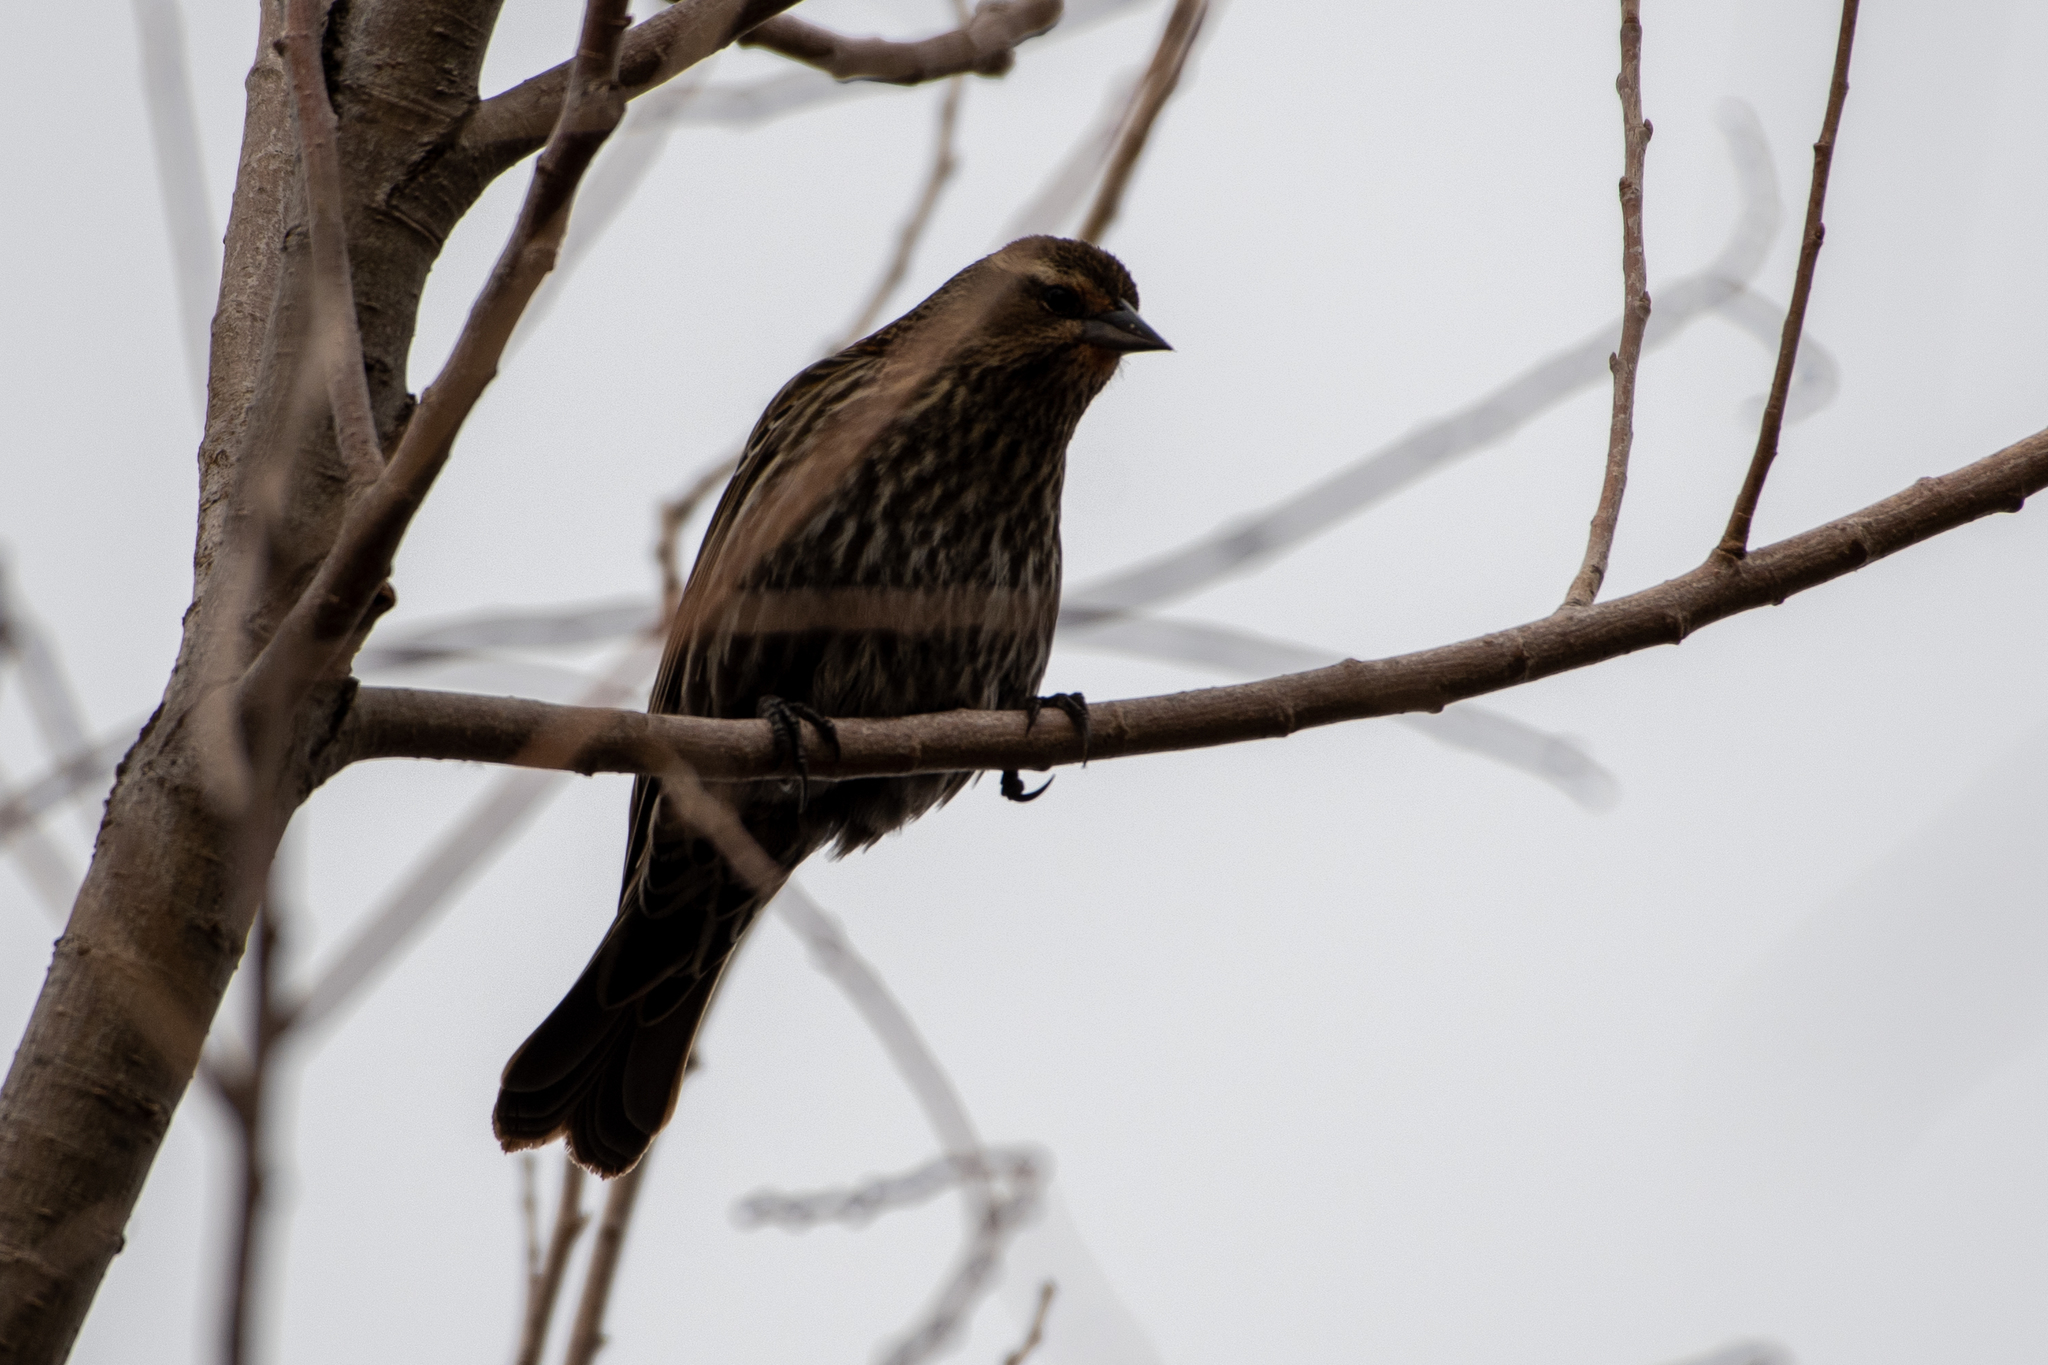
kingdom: Animalia
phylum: Chordata
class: Aves
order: Passeriformes
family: Icteridae
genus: Agelaius
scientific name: Agelaius phoeniceus
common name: Red-winged blackbird
